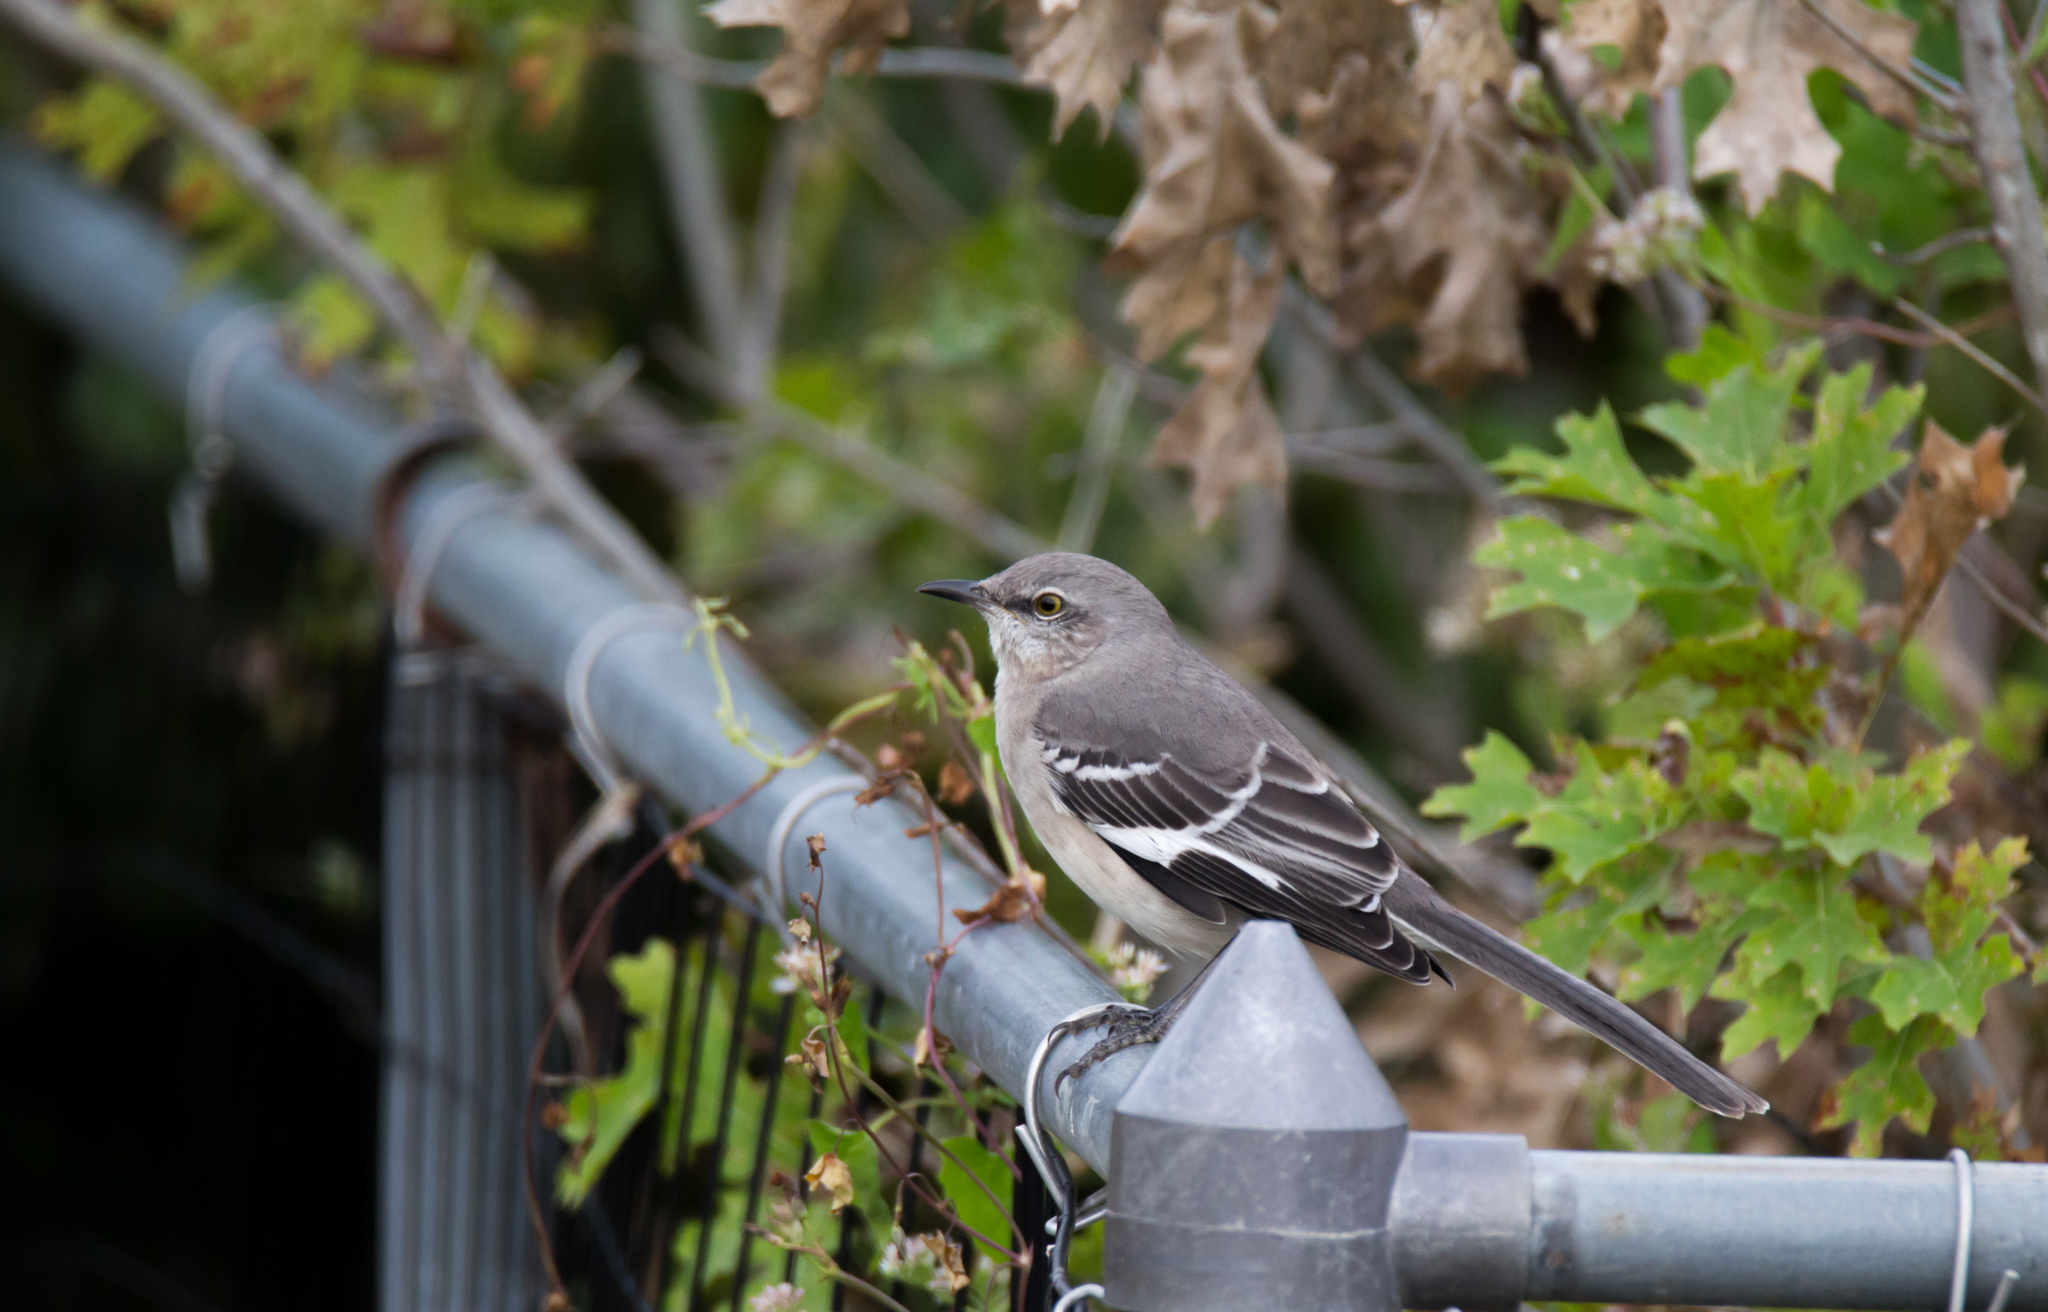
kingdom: Animalia
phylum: Chordata
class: Aves
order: Passeriformes
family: Mimidae
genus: Mimus
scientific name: Mimus polyglottos
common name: Northern mockingbird
